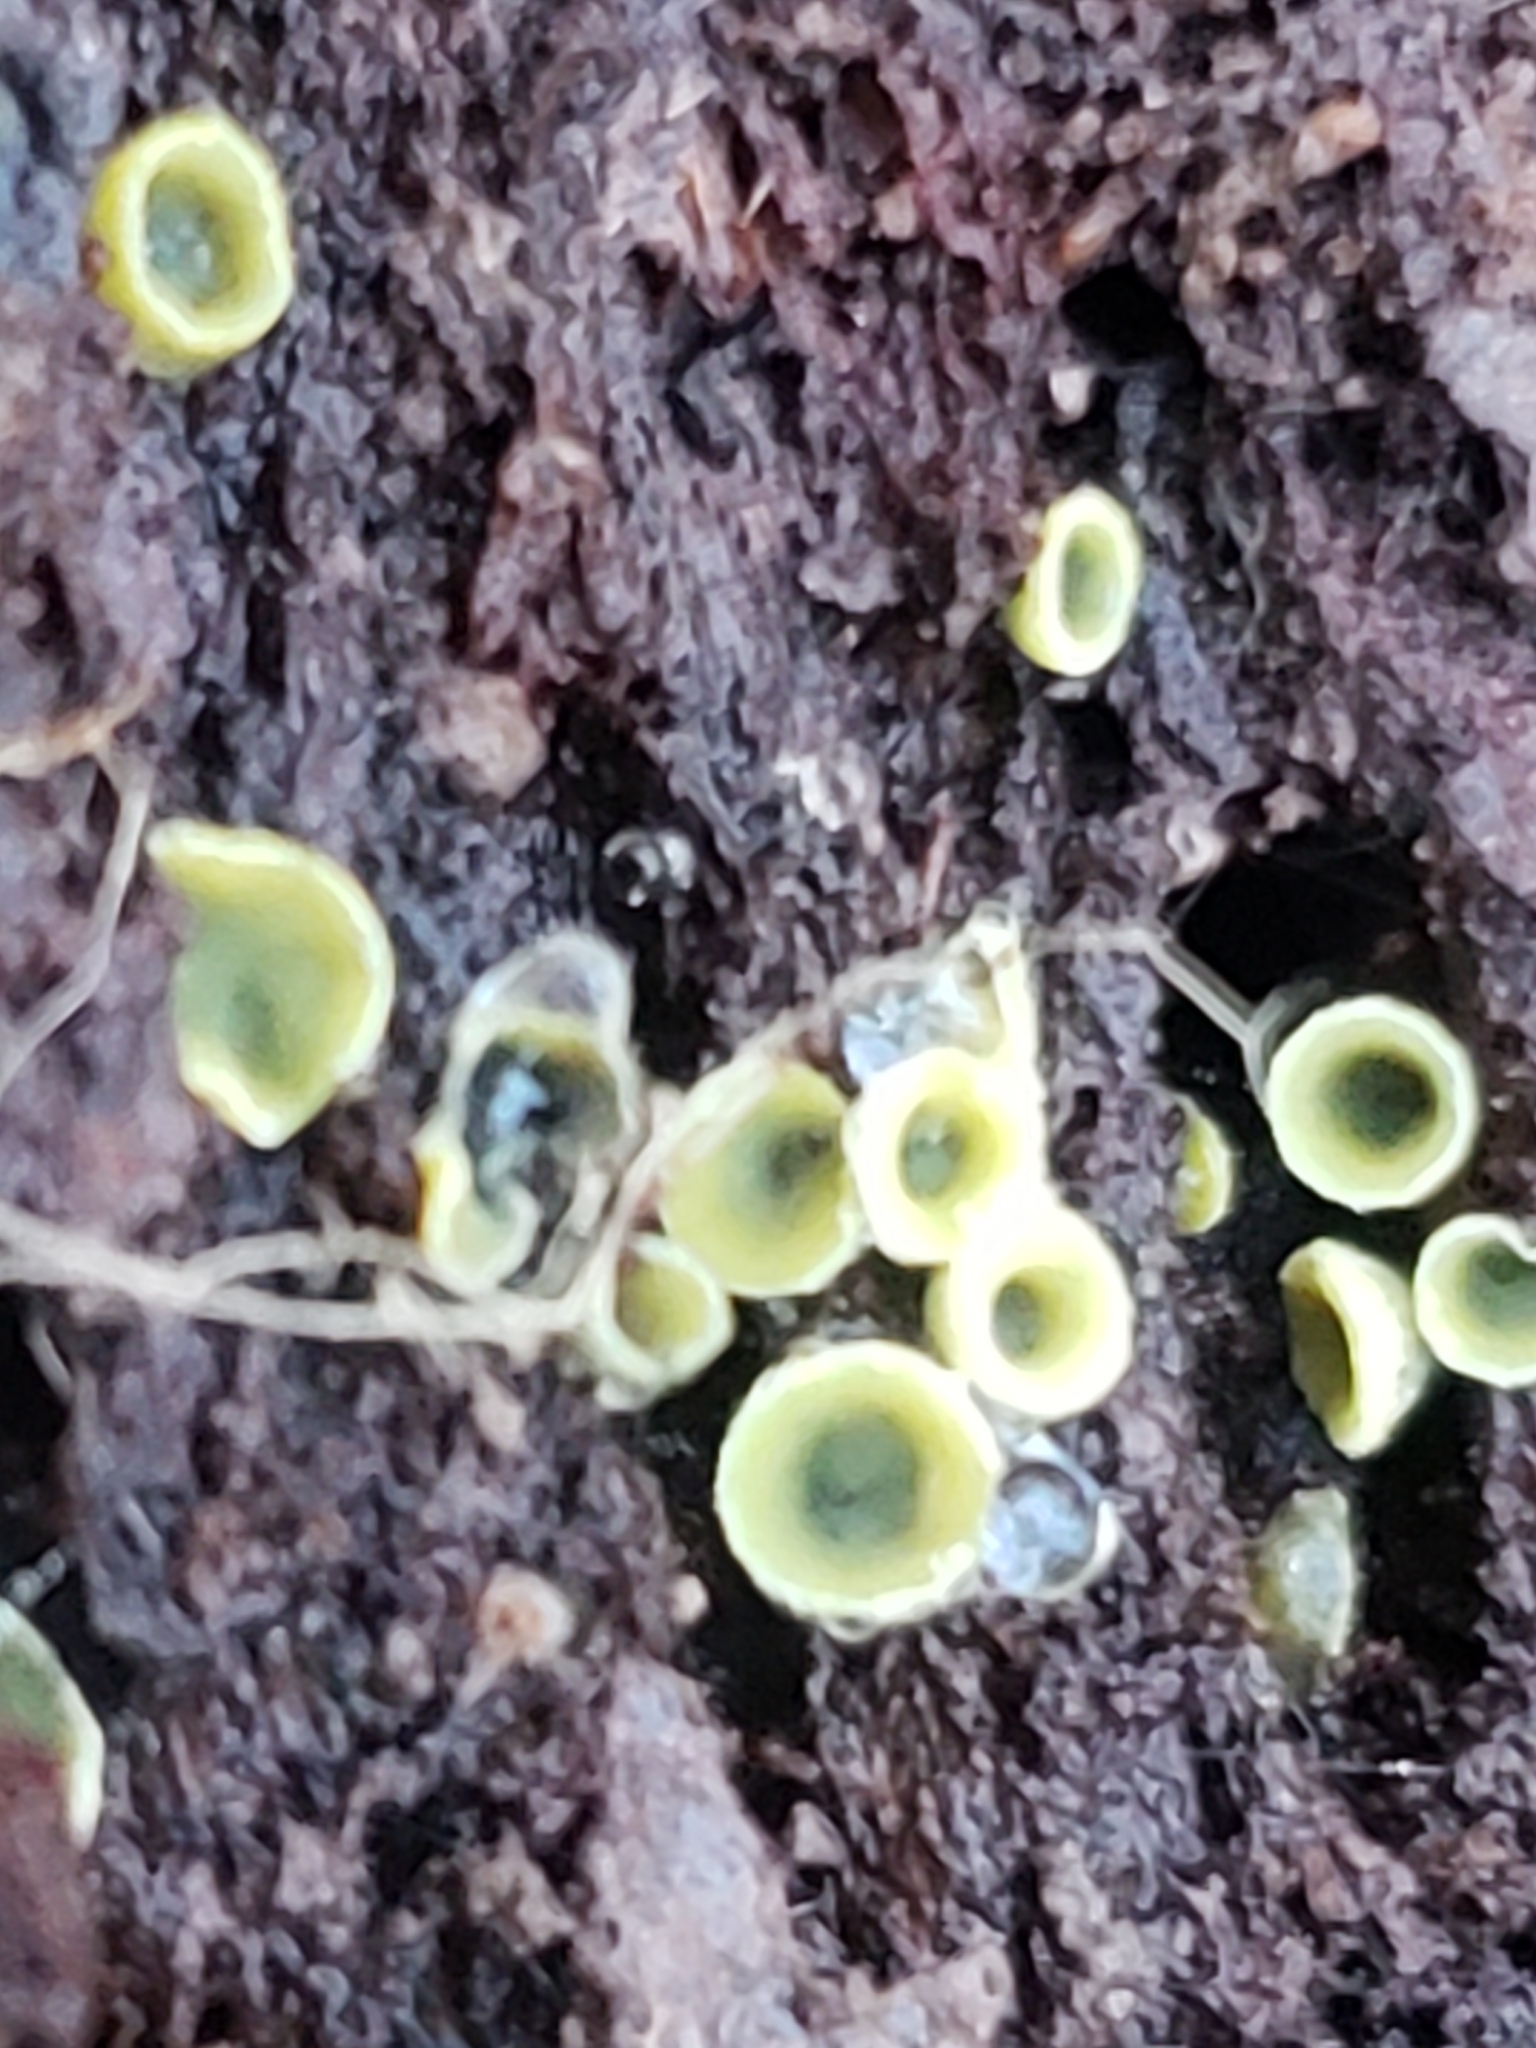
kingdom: Fungi
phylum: Ascomycota
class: Leotiomycetes
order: Helotiales
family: Chlorospleniaceae
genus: Chlorosplenium
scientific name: Chlorosplenium chlora
